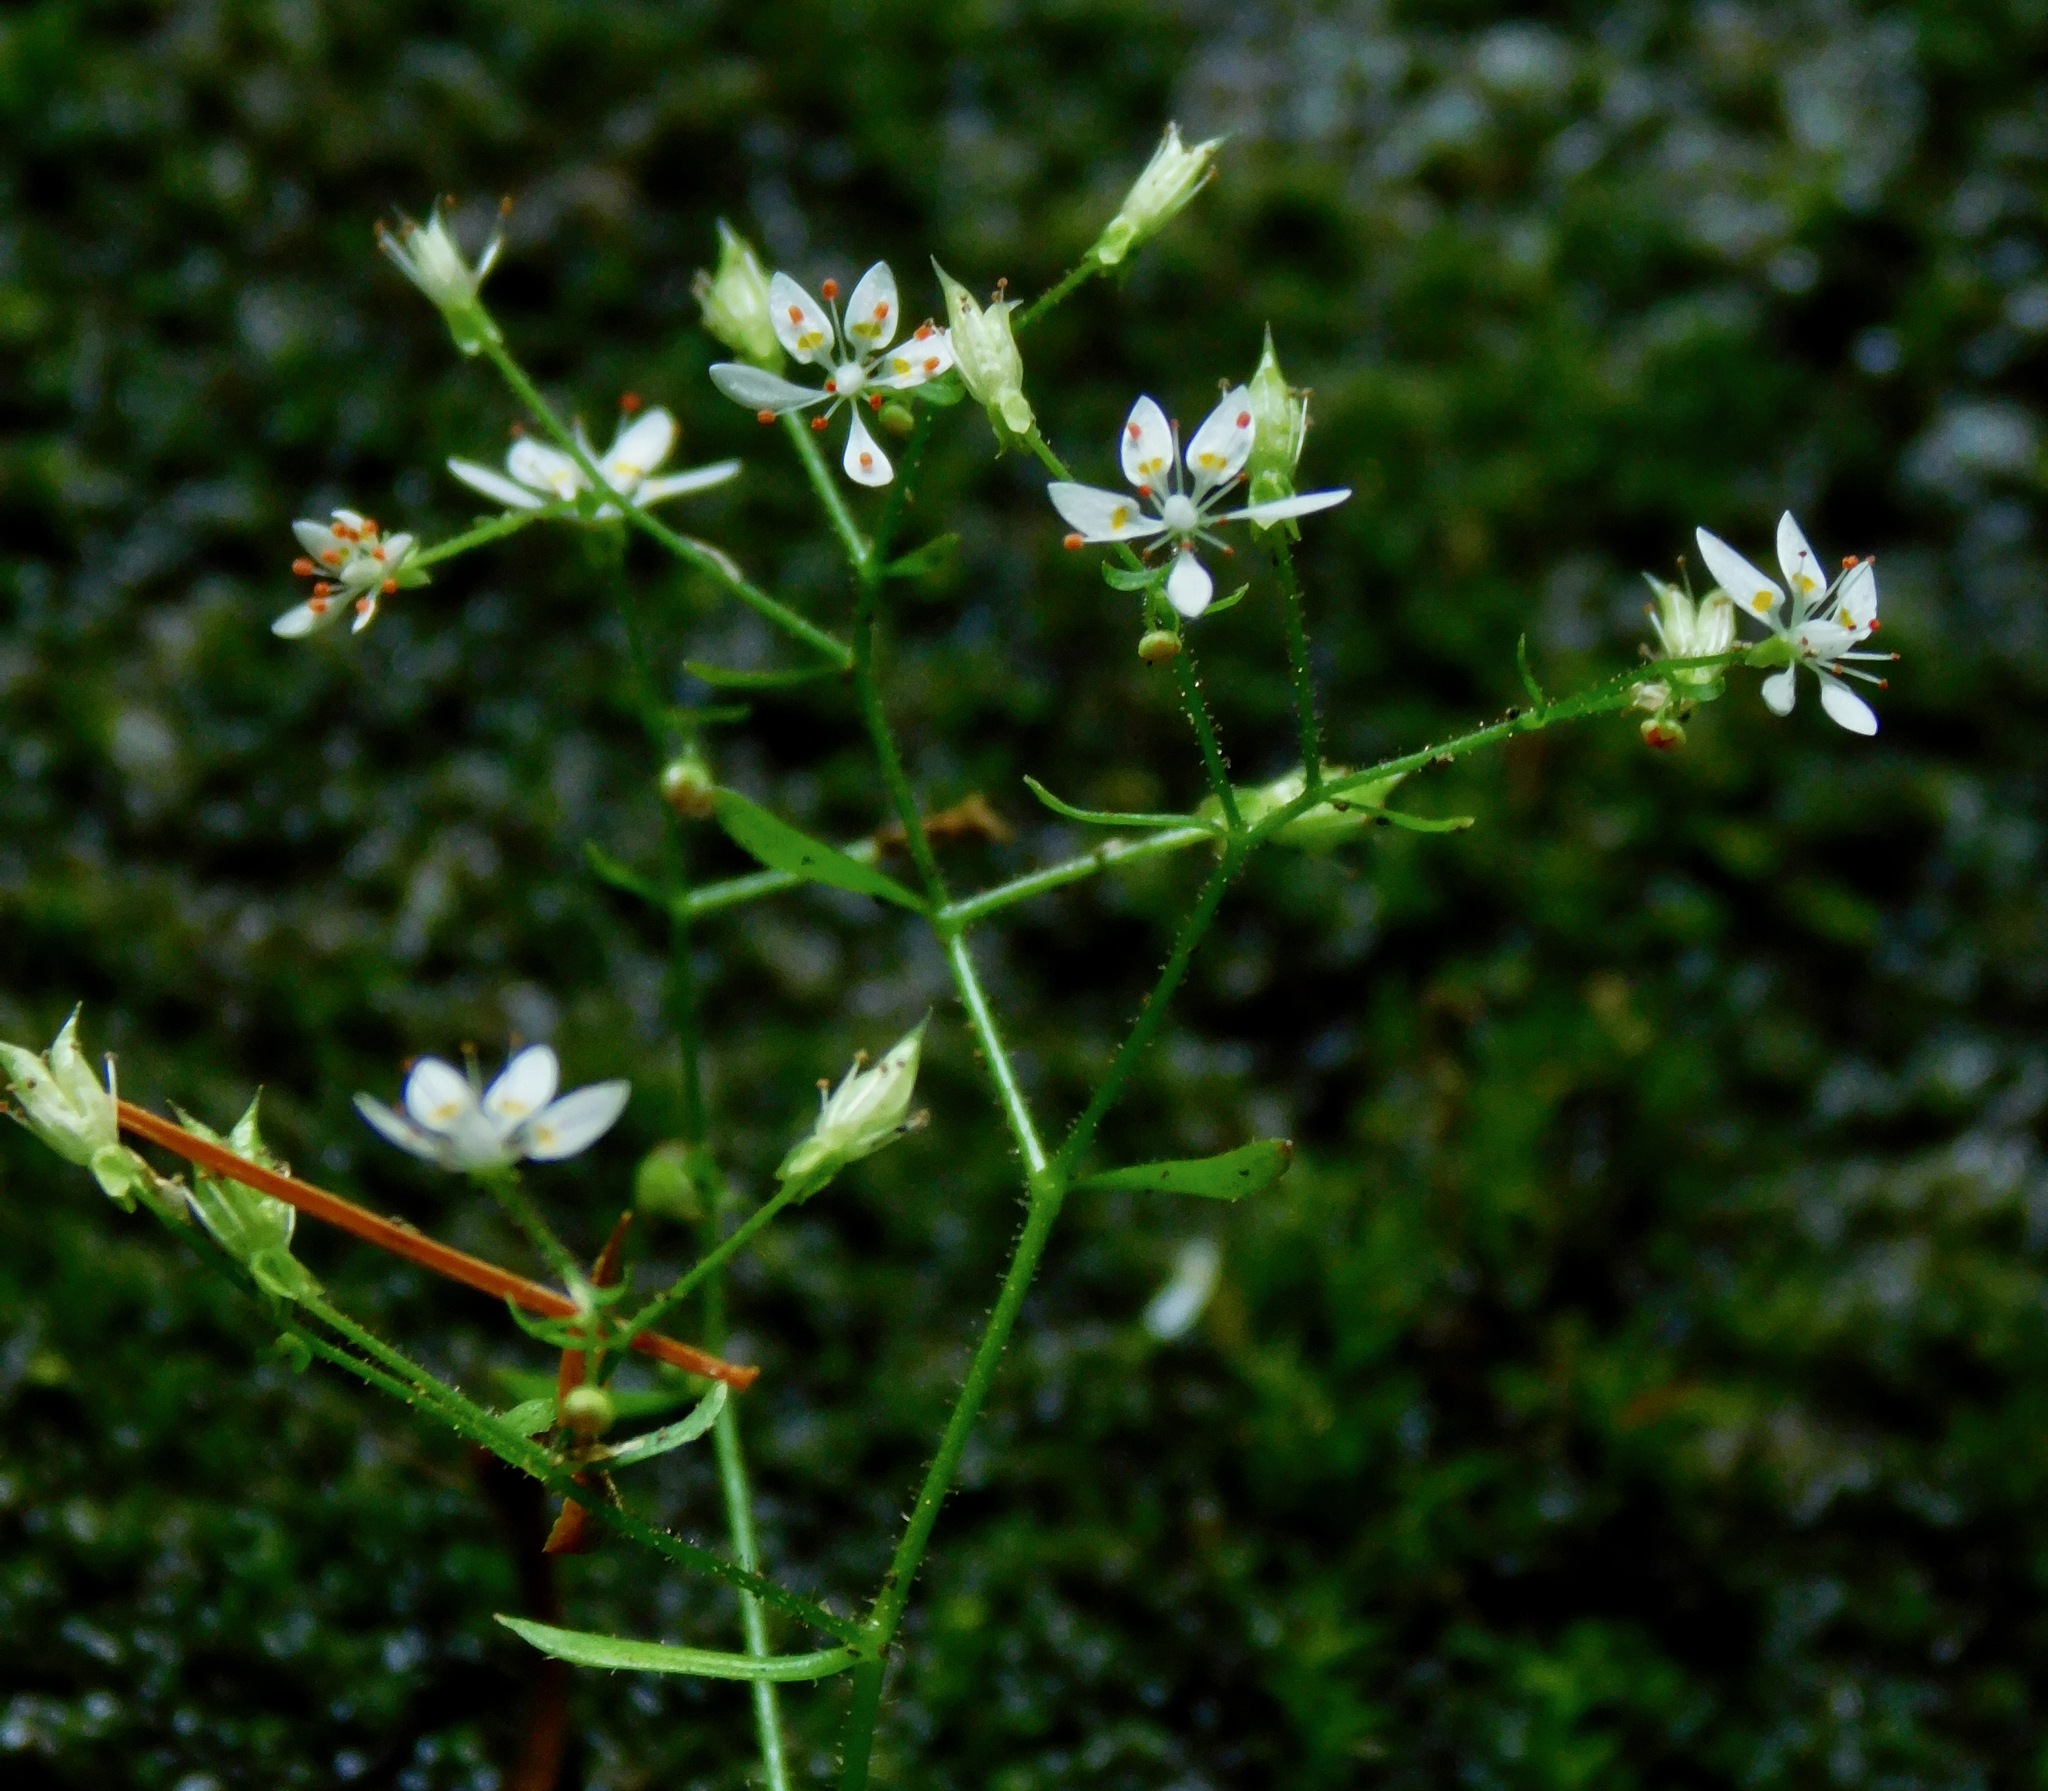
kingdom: Plantae
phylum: Tracheophyta
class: Magnoliopsida
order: Saxifragales
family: Saxifragaceae
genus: Micranthes
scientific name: Micranthes petiolaris
